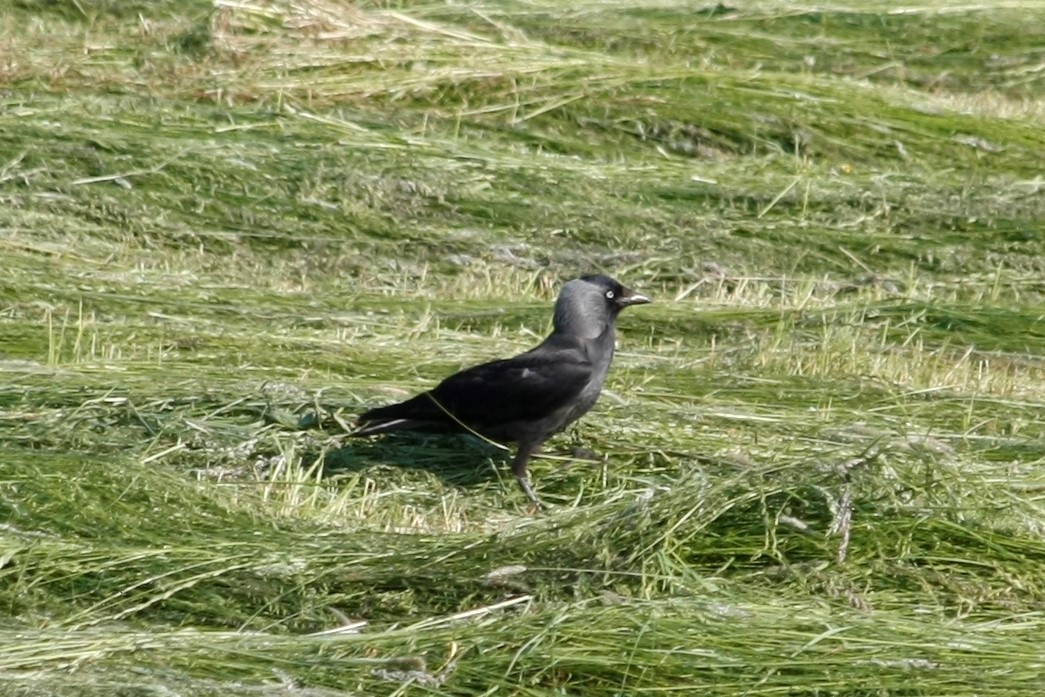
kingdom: Animalia
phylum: Chordata
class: Aves
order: Passeriformes
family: Corvidae
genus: Coloeus
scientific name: Coloeus monedula
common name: Western jackdaw
